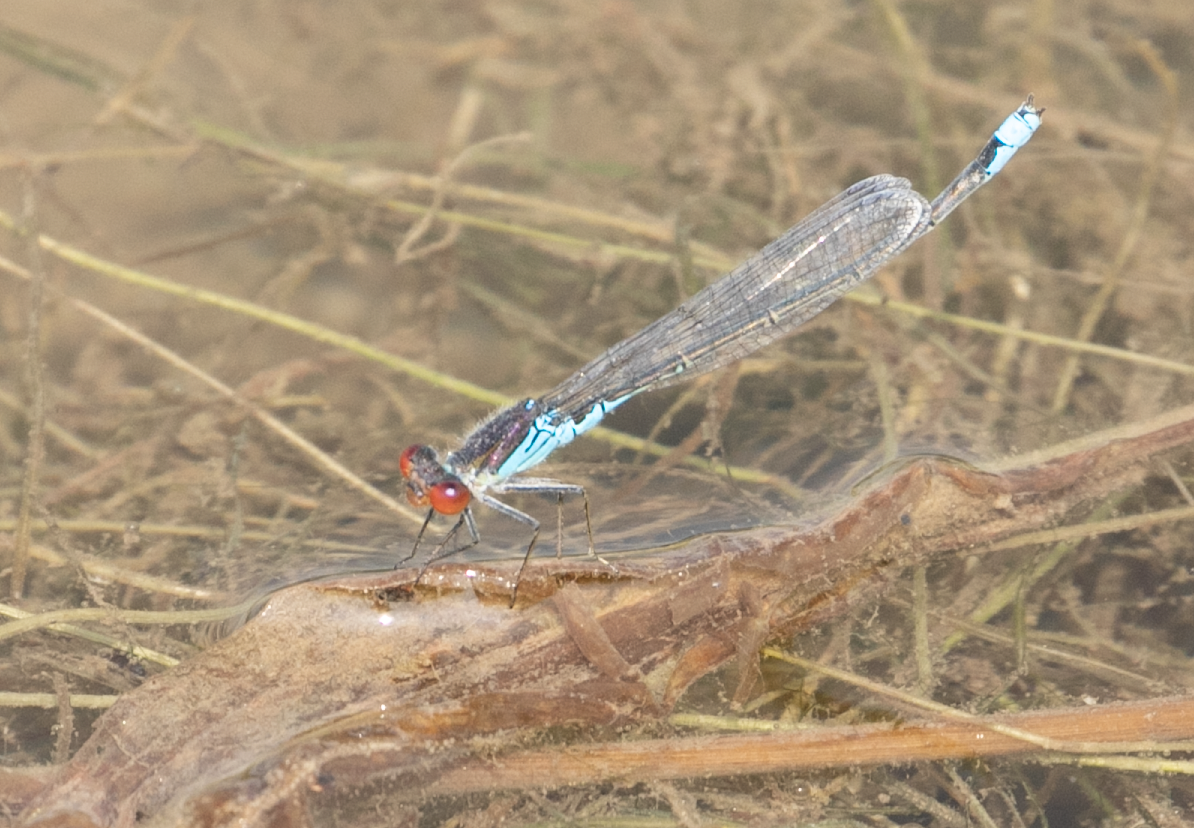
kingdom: Animalia
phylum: Arthropoda
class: Insecta
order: Odonata
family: Coenagrionidae
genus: Erythromma
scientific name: Erythromma viridulum
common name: Small red-eyed damselfly
